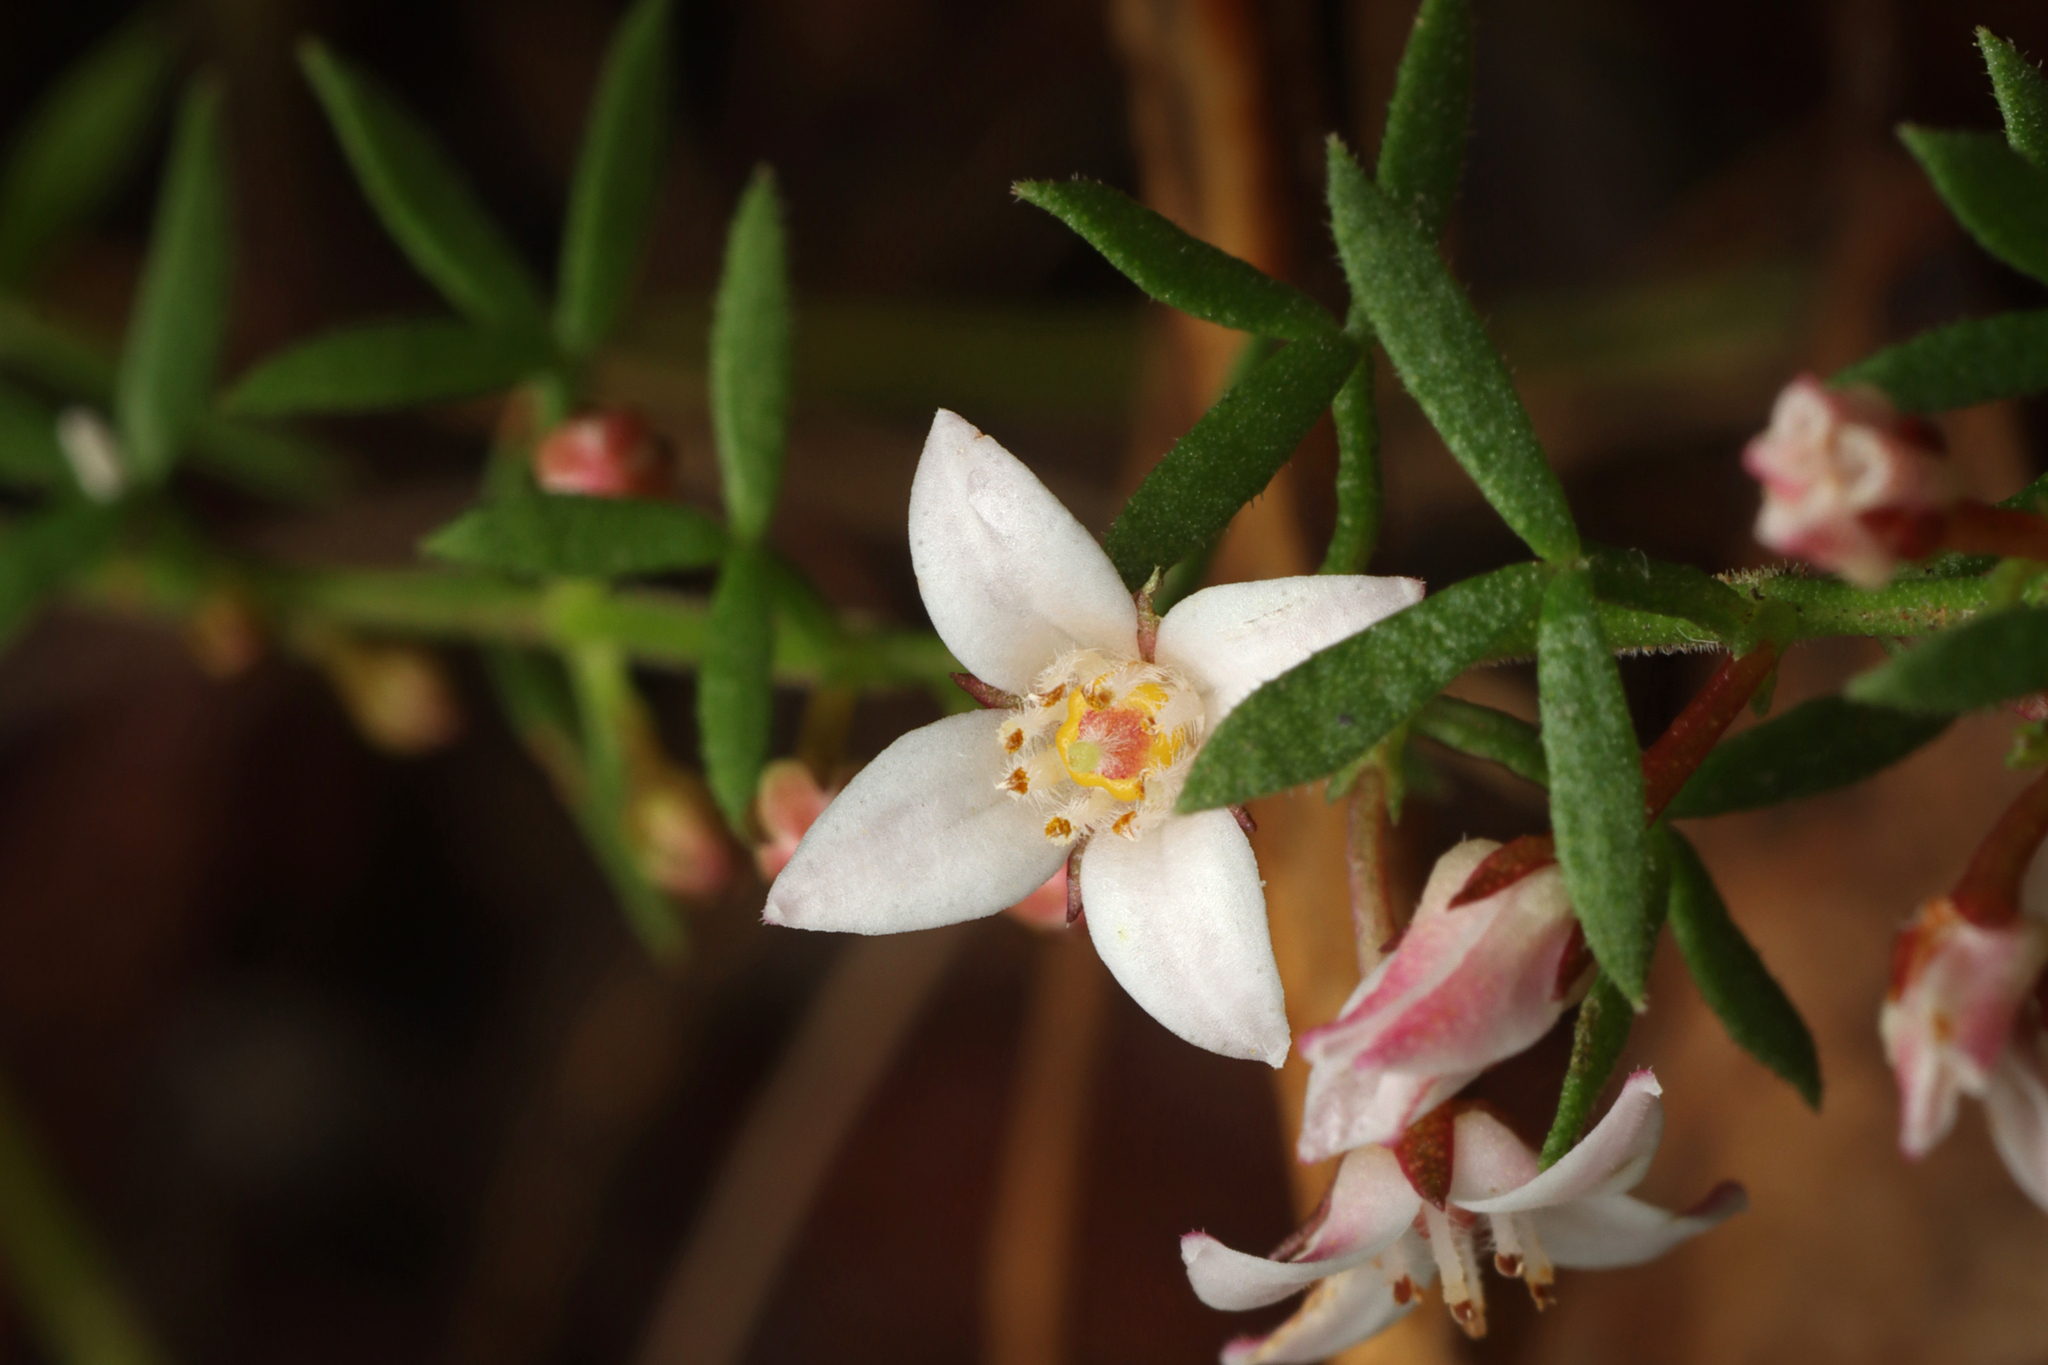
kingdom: Plantae
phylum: Tracheophyta
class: Magnoliopsida
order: Sapindales
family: Rutaceae
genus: Cyanothamnus
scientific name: Cyanothamnus nanus
